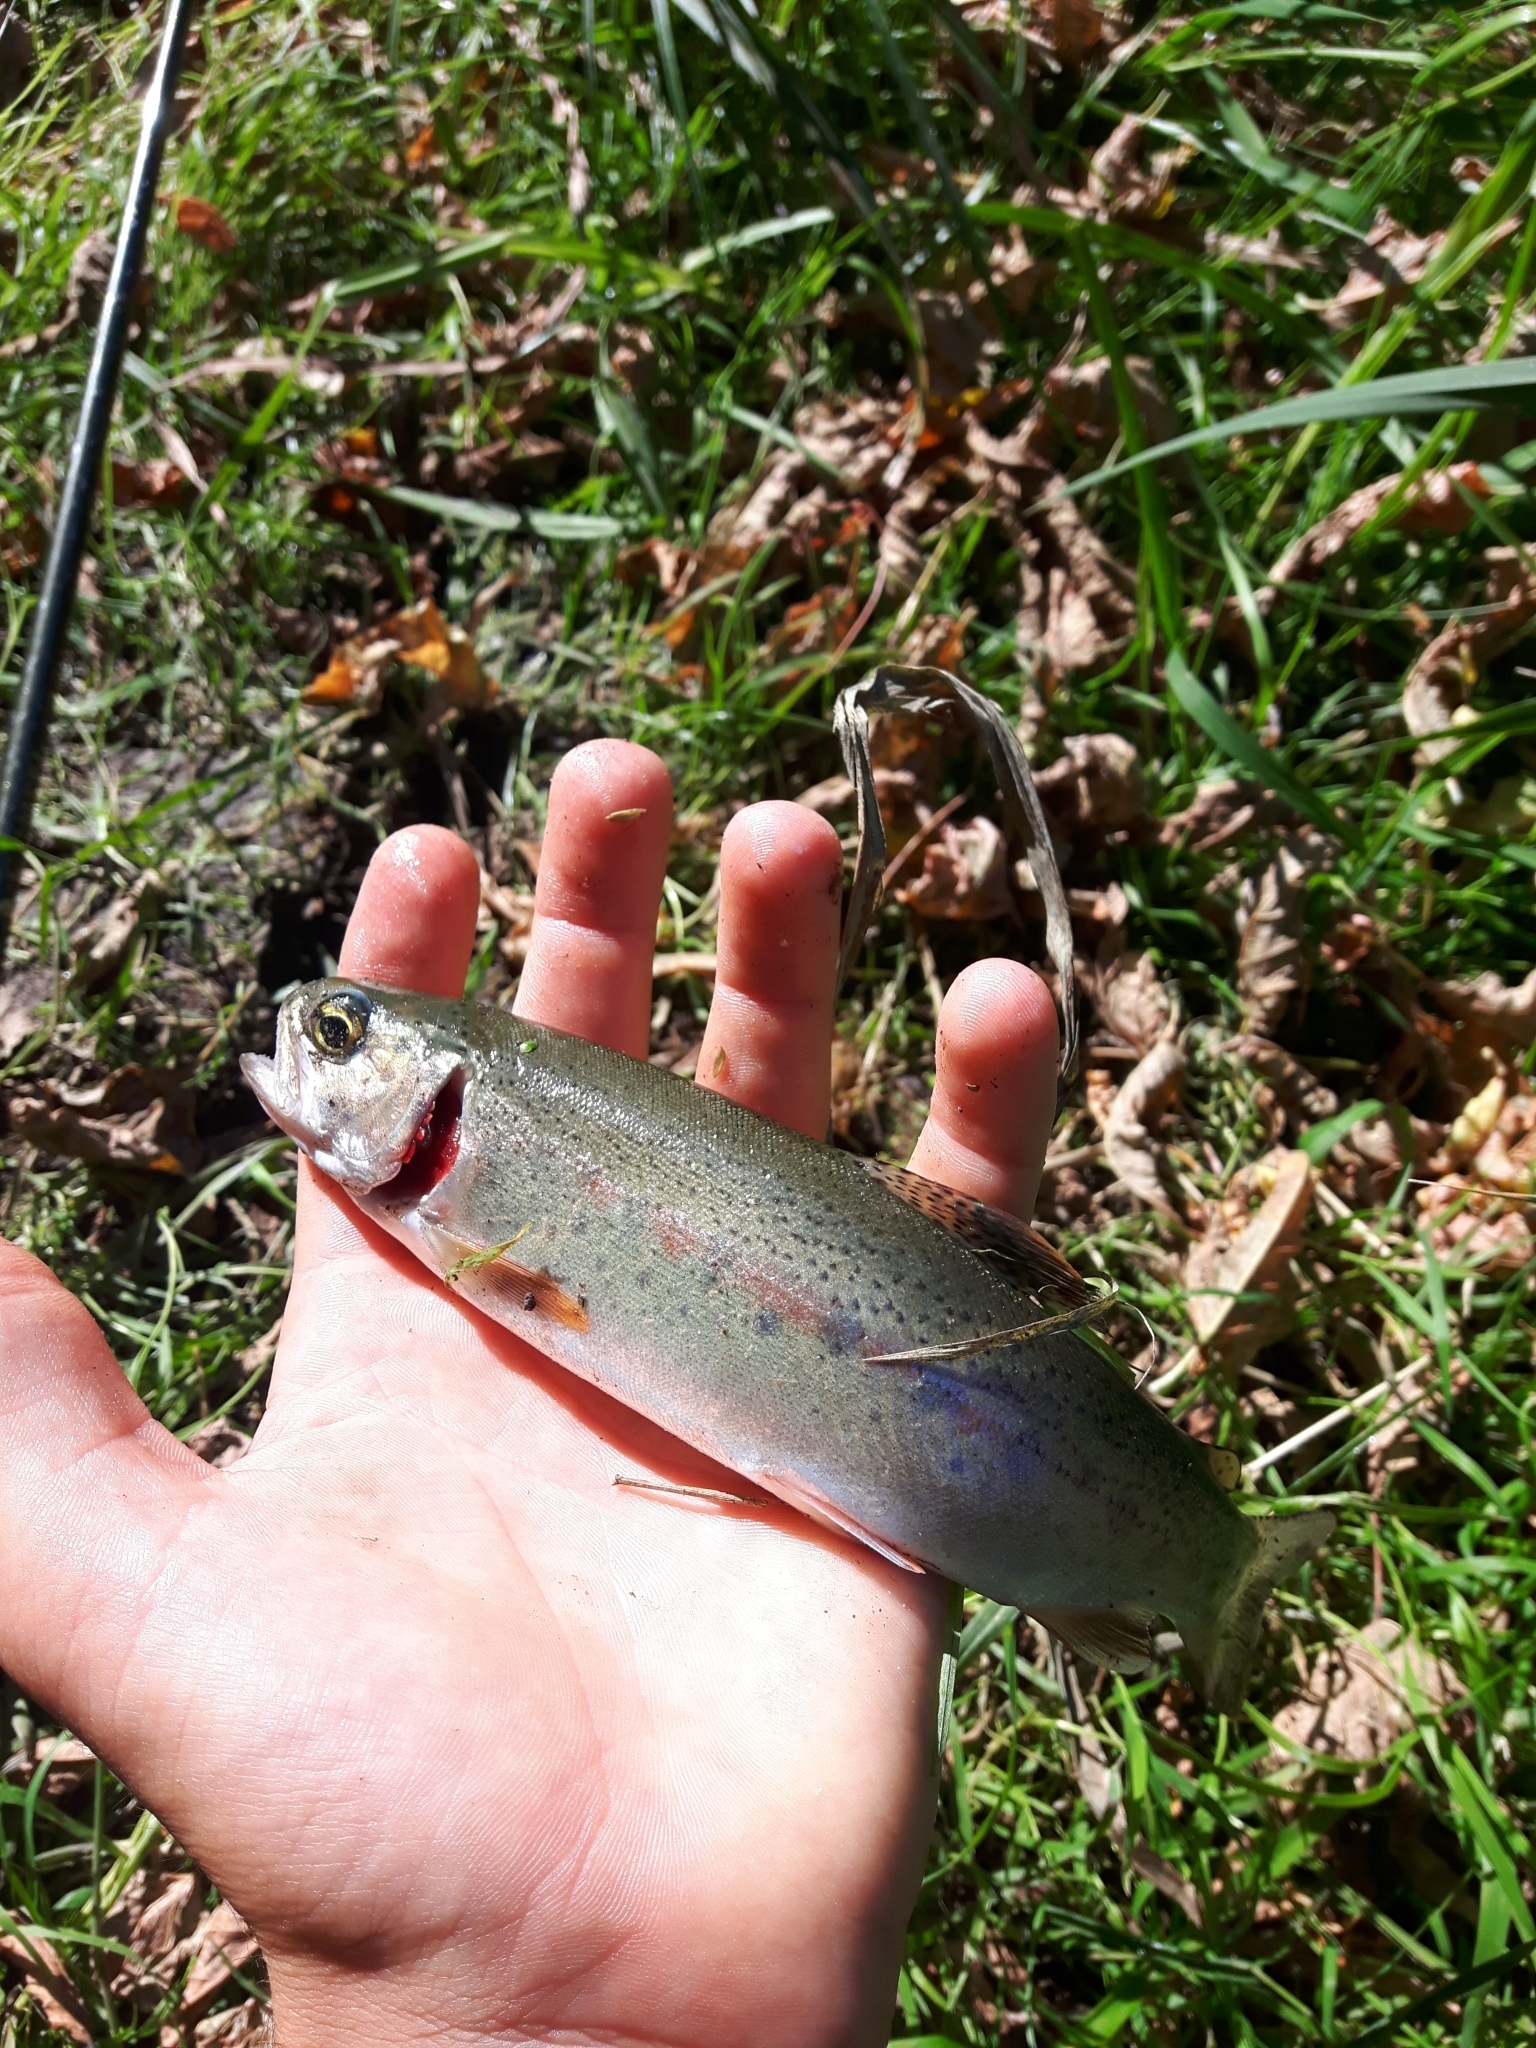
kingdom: Animalia
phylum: Chordata
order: Salmoniformes
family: Salmonidae
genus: Oncorhynchus
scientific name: Oncorhynchus mykiss
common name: Rainbow trout
